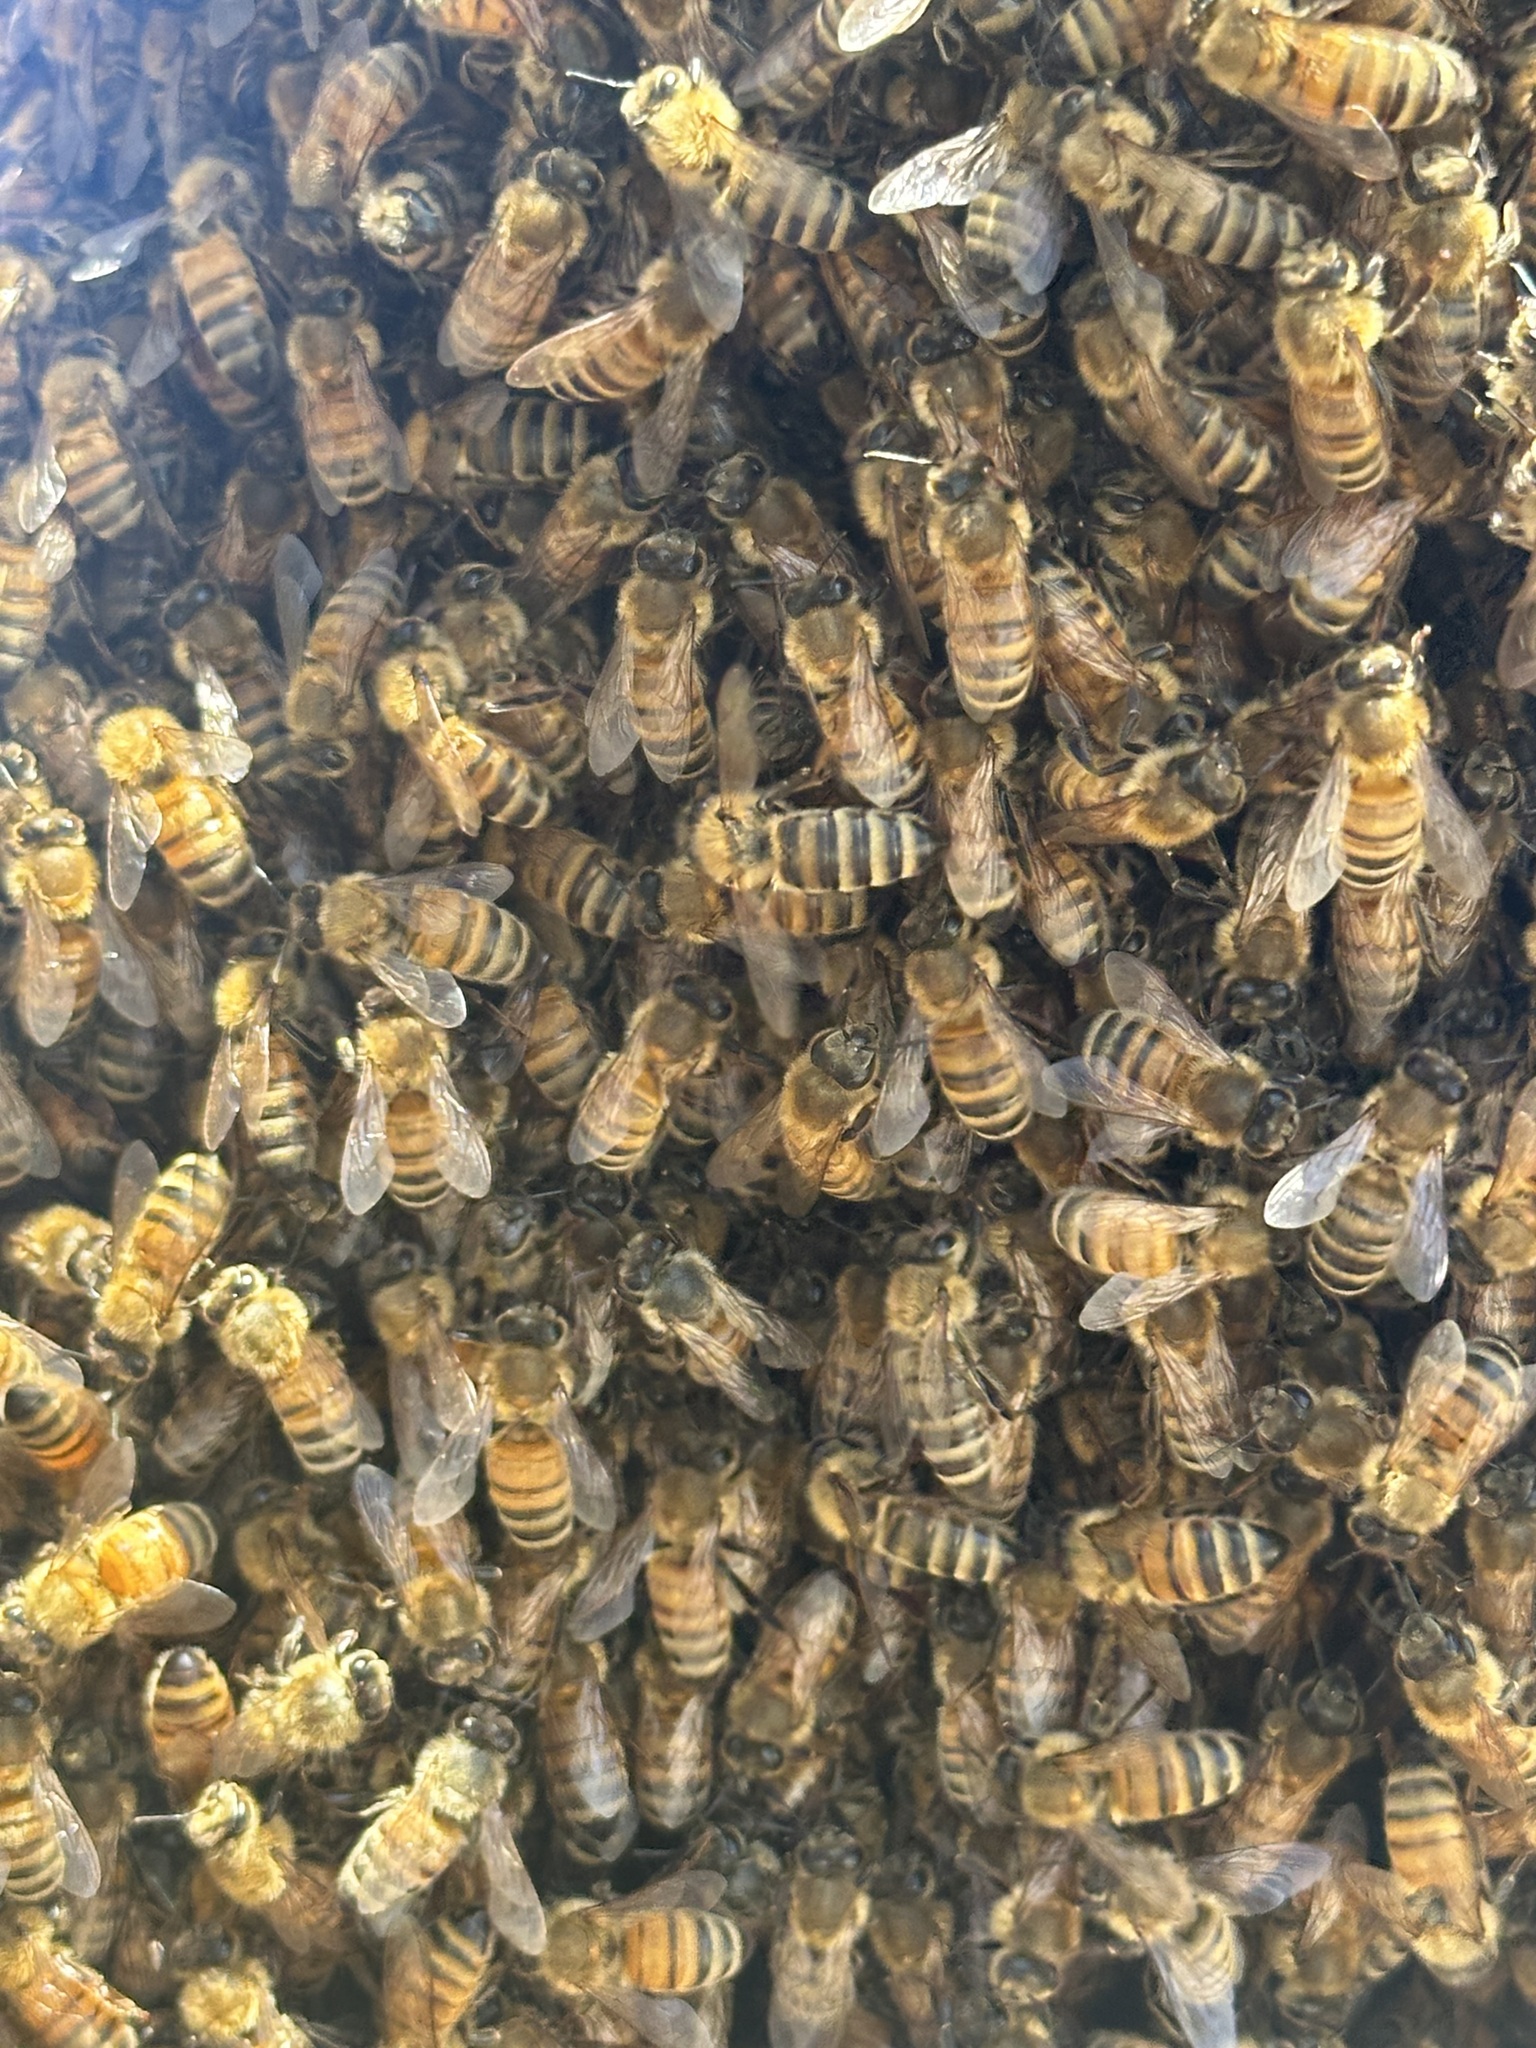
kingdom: Animalia
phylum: Arthropoda
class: Insecta
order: Hymenoptera
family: Apidae
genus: Apis
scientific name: Apis mellifera
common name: Honey bee
